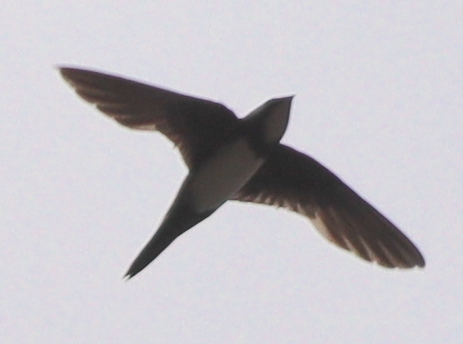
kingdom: Animalia
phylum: Chordata
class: Aves
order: Apodiformes
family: Apodidae
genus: Tachymarptis
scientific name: Tachymarptis melba
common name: Alpine swift
